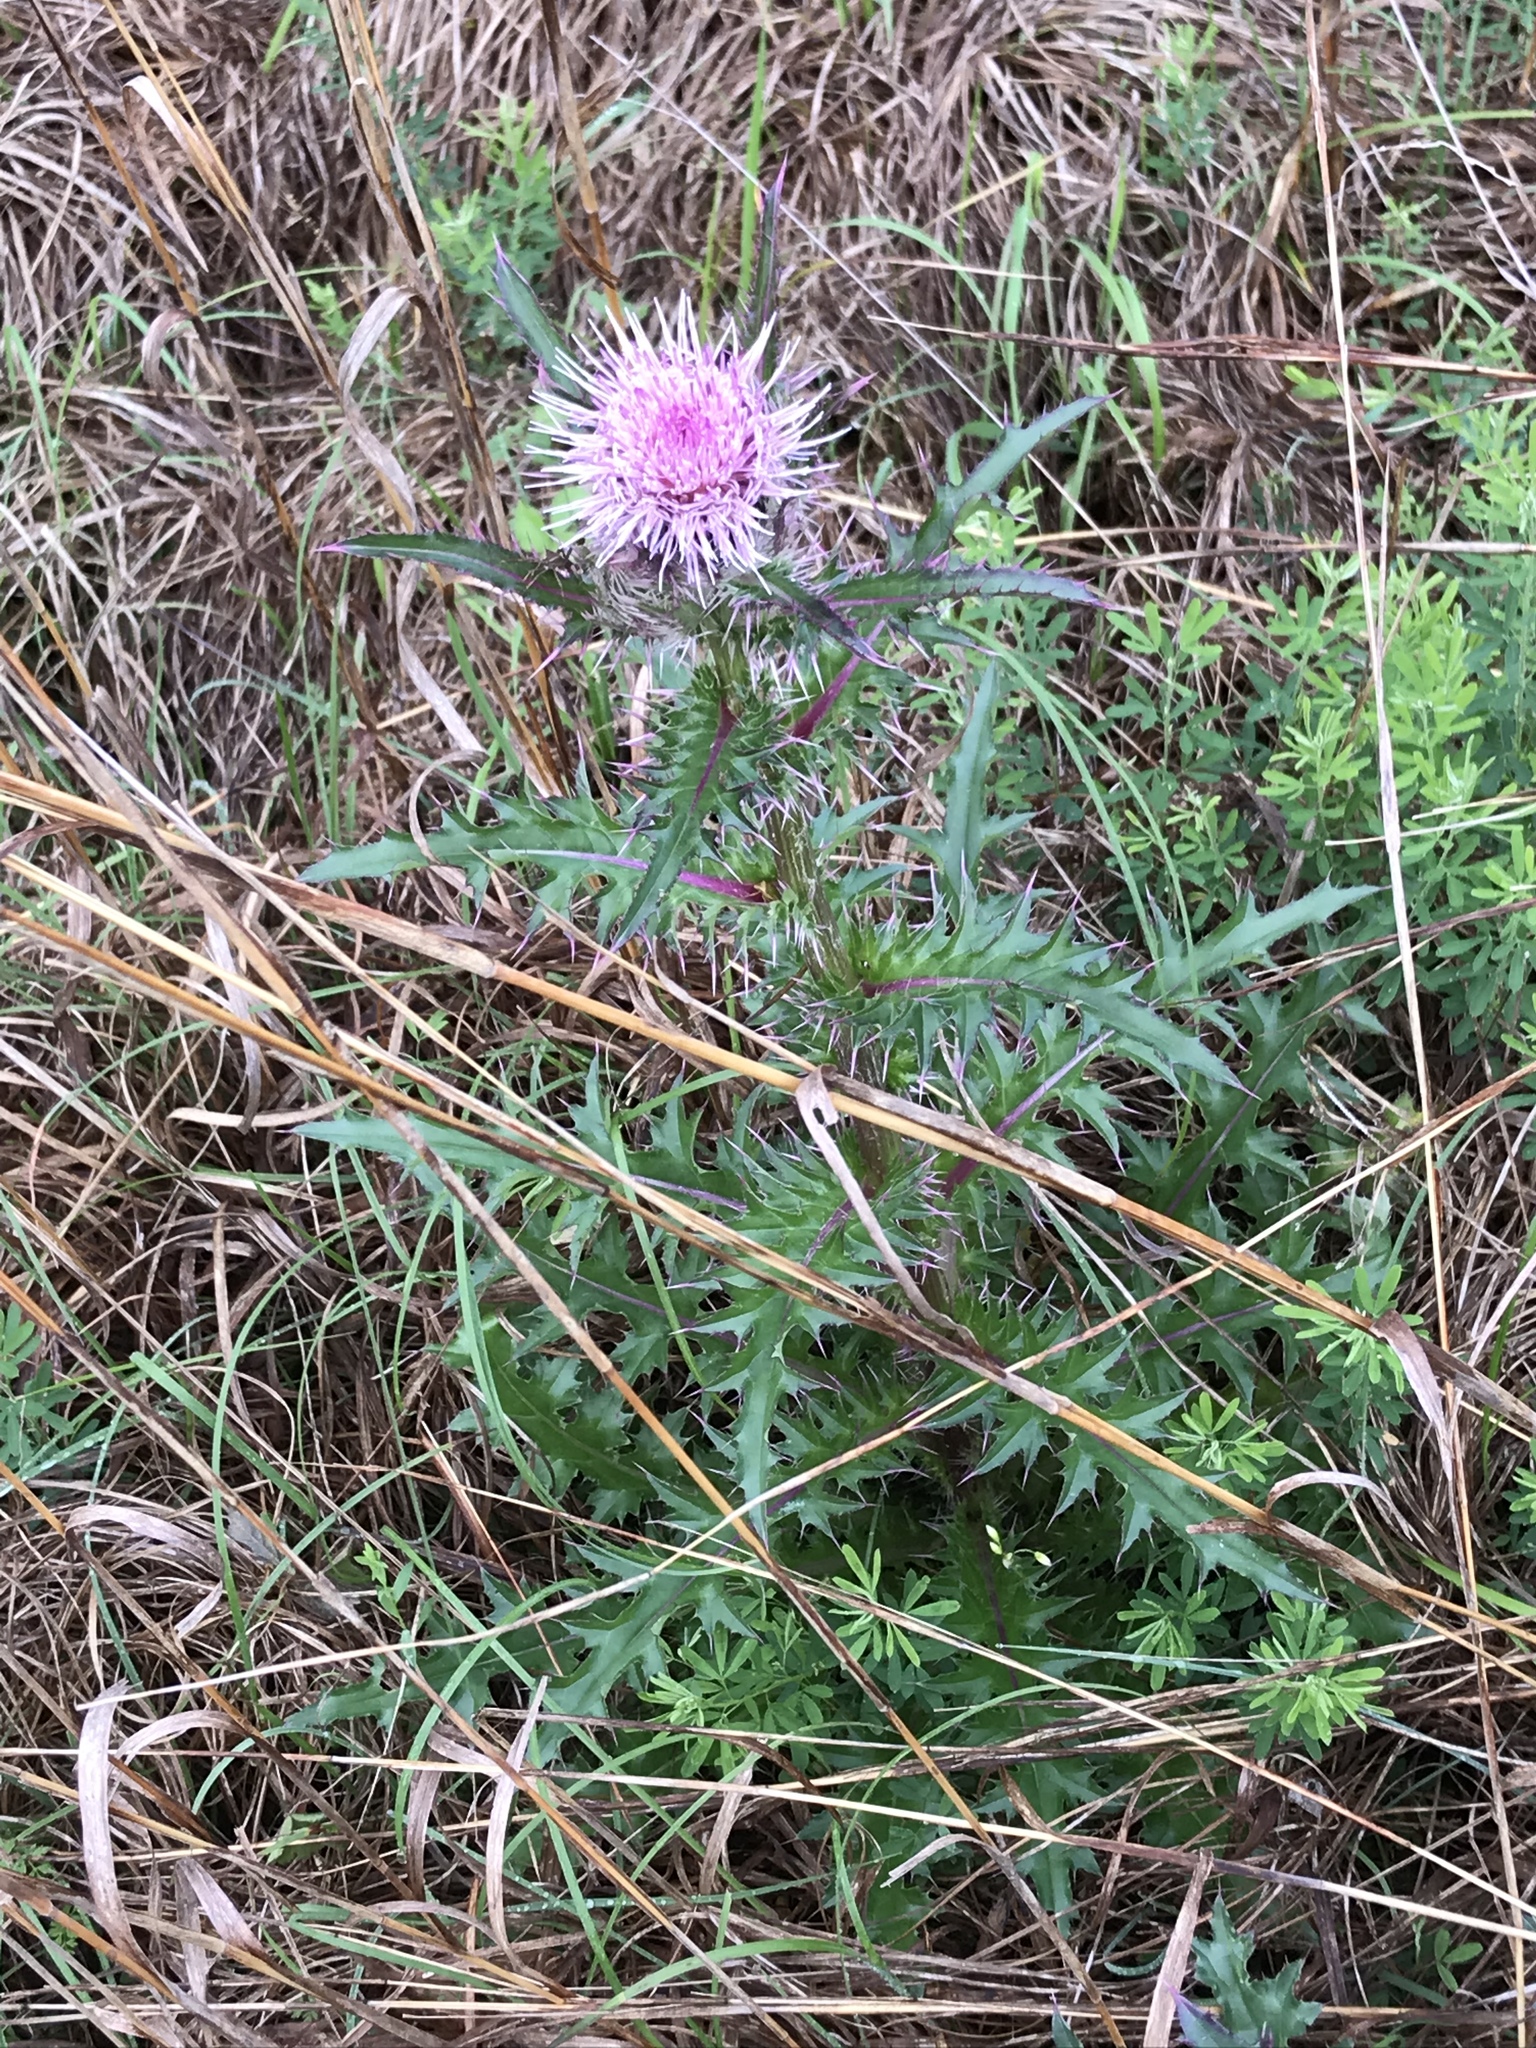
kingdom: Plantae
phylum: Tracheophyta
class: Magnoliopsida
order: Asterales
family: Asteraceae
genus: Cirsium
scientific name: Cirsium horridulum
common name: Bristly thistle
